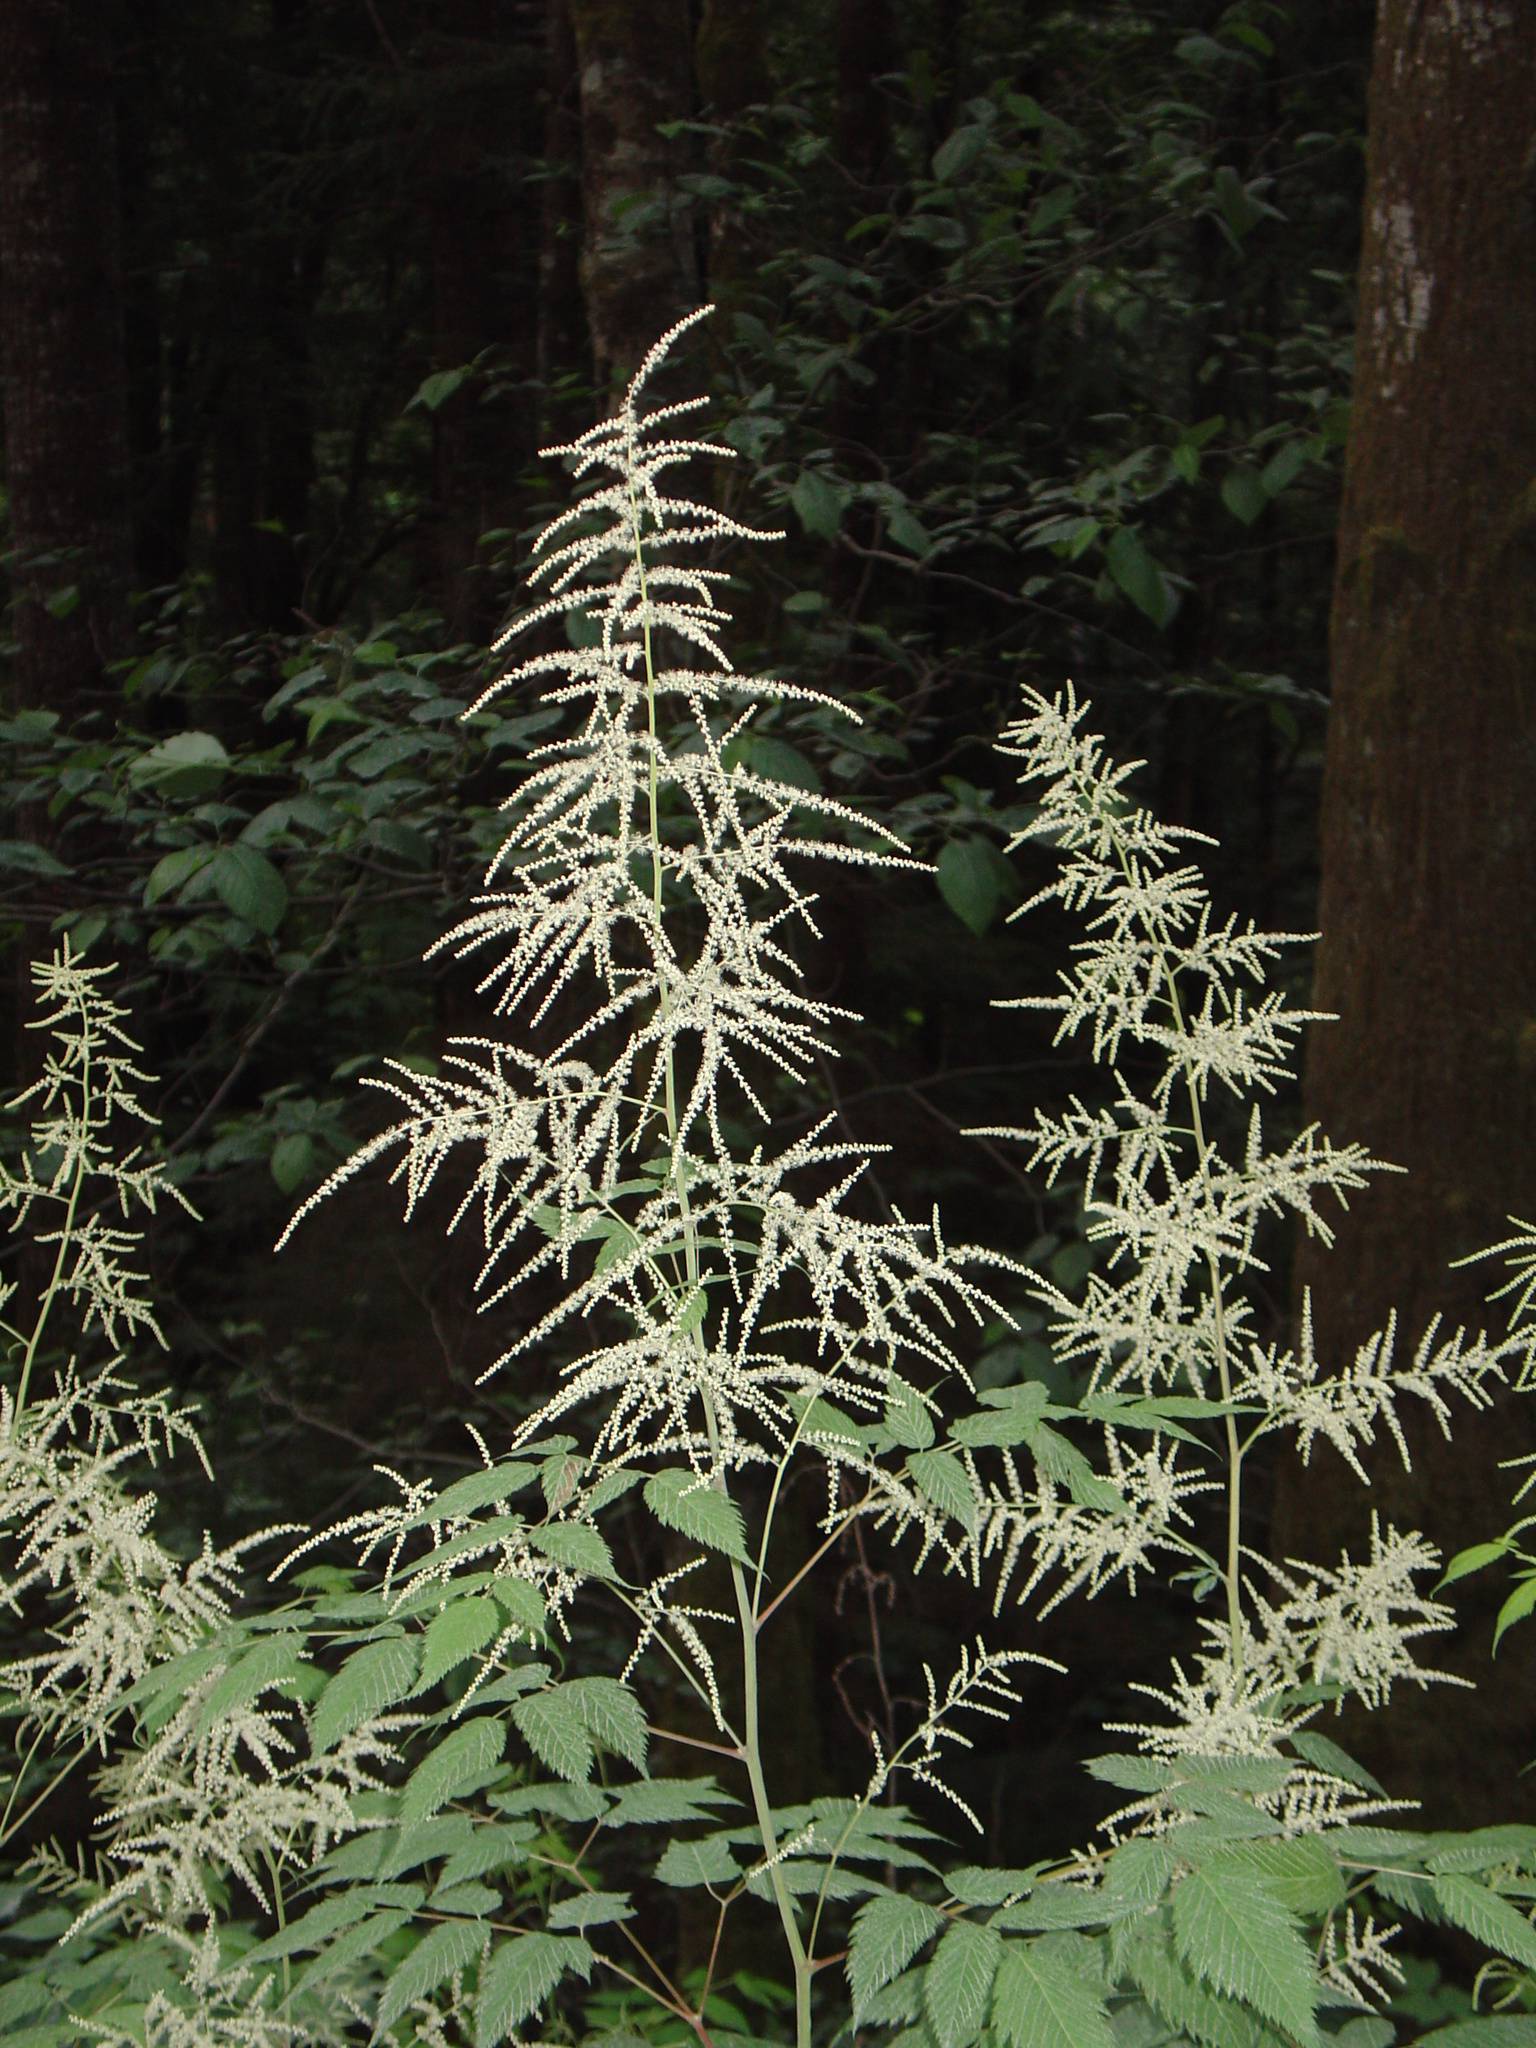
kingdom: Plantae
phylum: Tracheophyta
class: Magnoliopsida
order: Rosales
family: Rosaceae
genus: Aruncus
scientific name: Aruncus dioicus
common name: Buck's-beard
